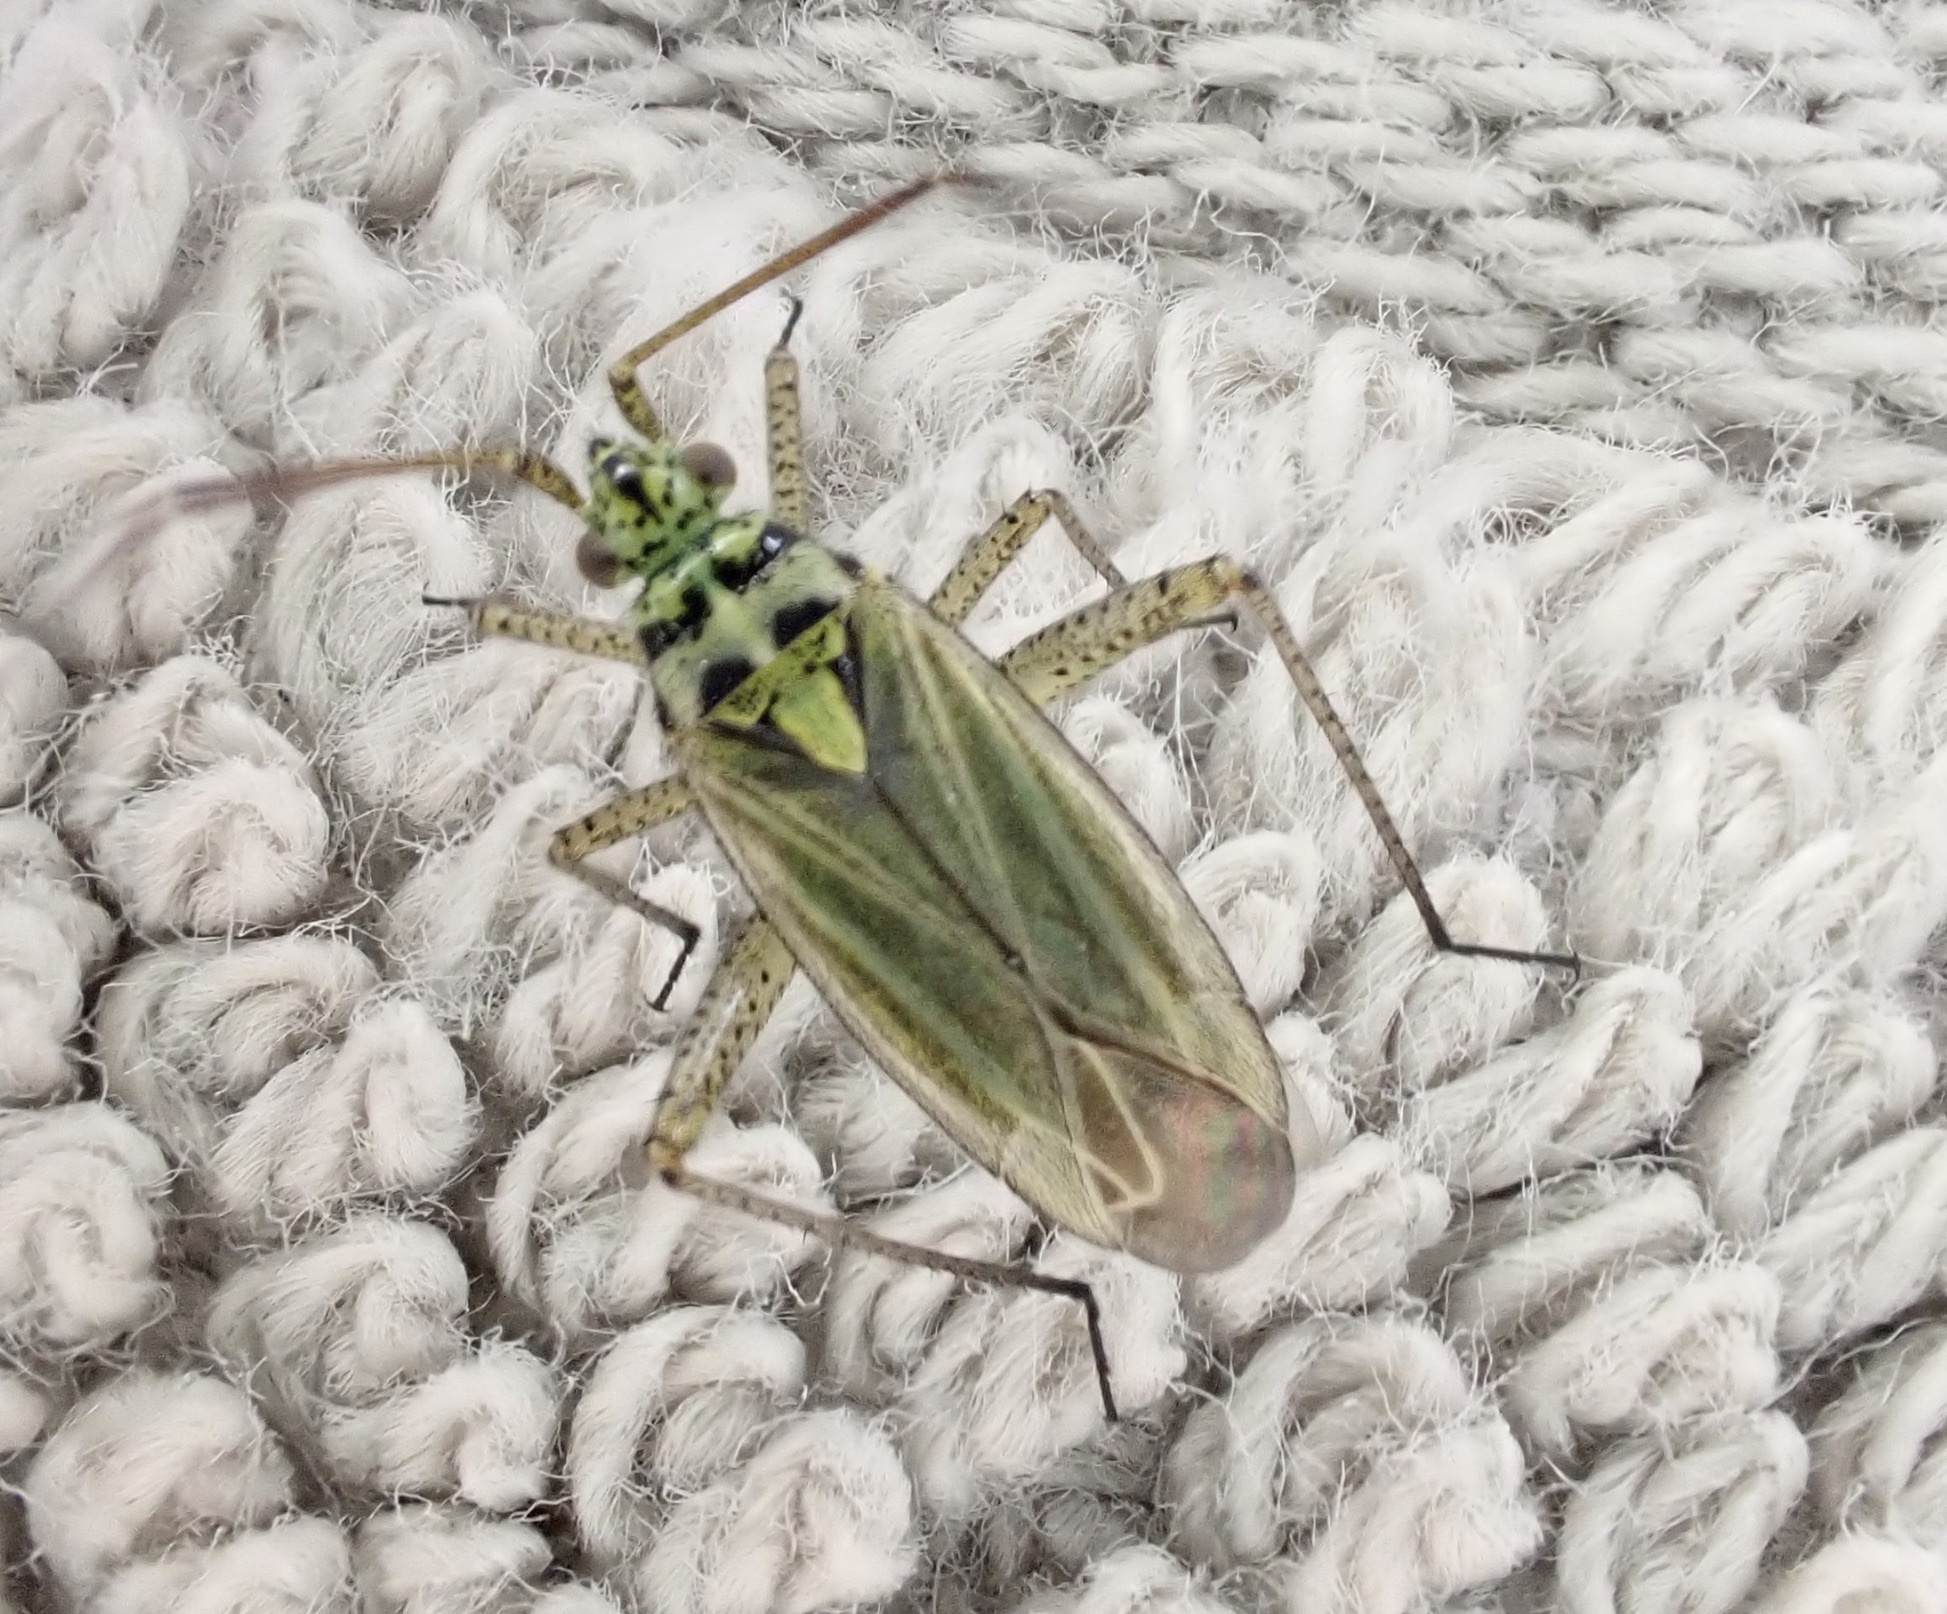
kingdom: Animalia
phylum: Arthropoda
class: Insecta
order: Hemiptera
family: Miridae
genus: Oncotylus
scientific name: Oncotylus viridiflavus
